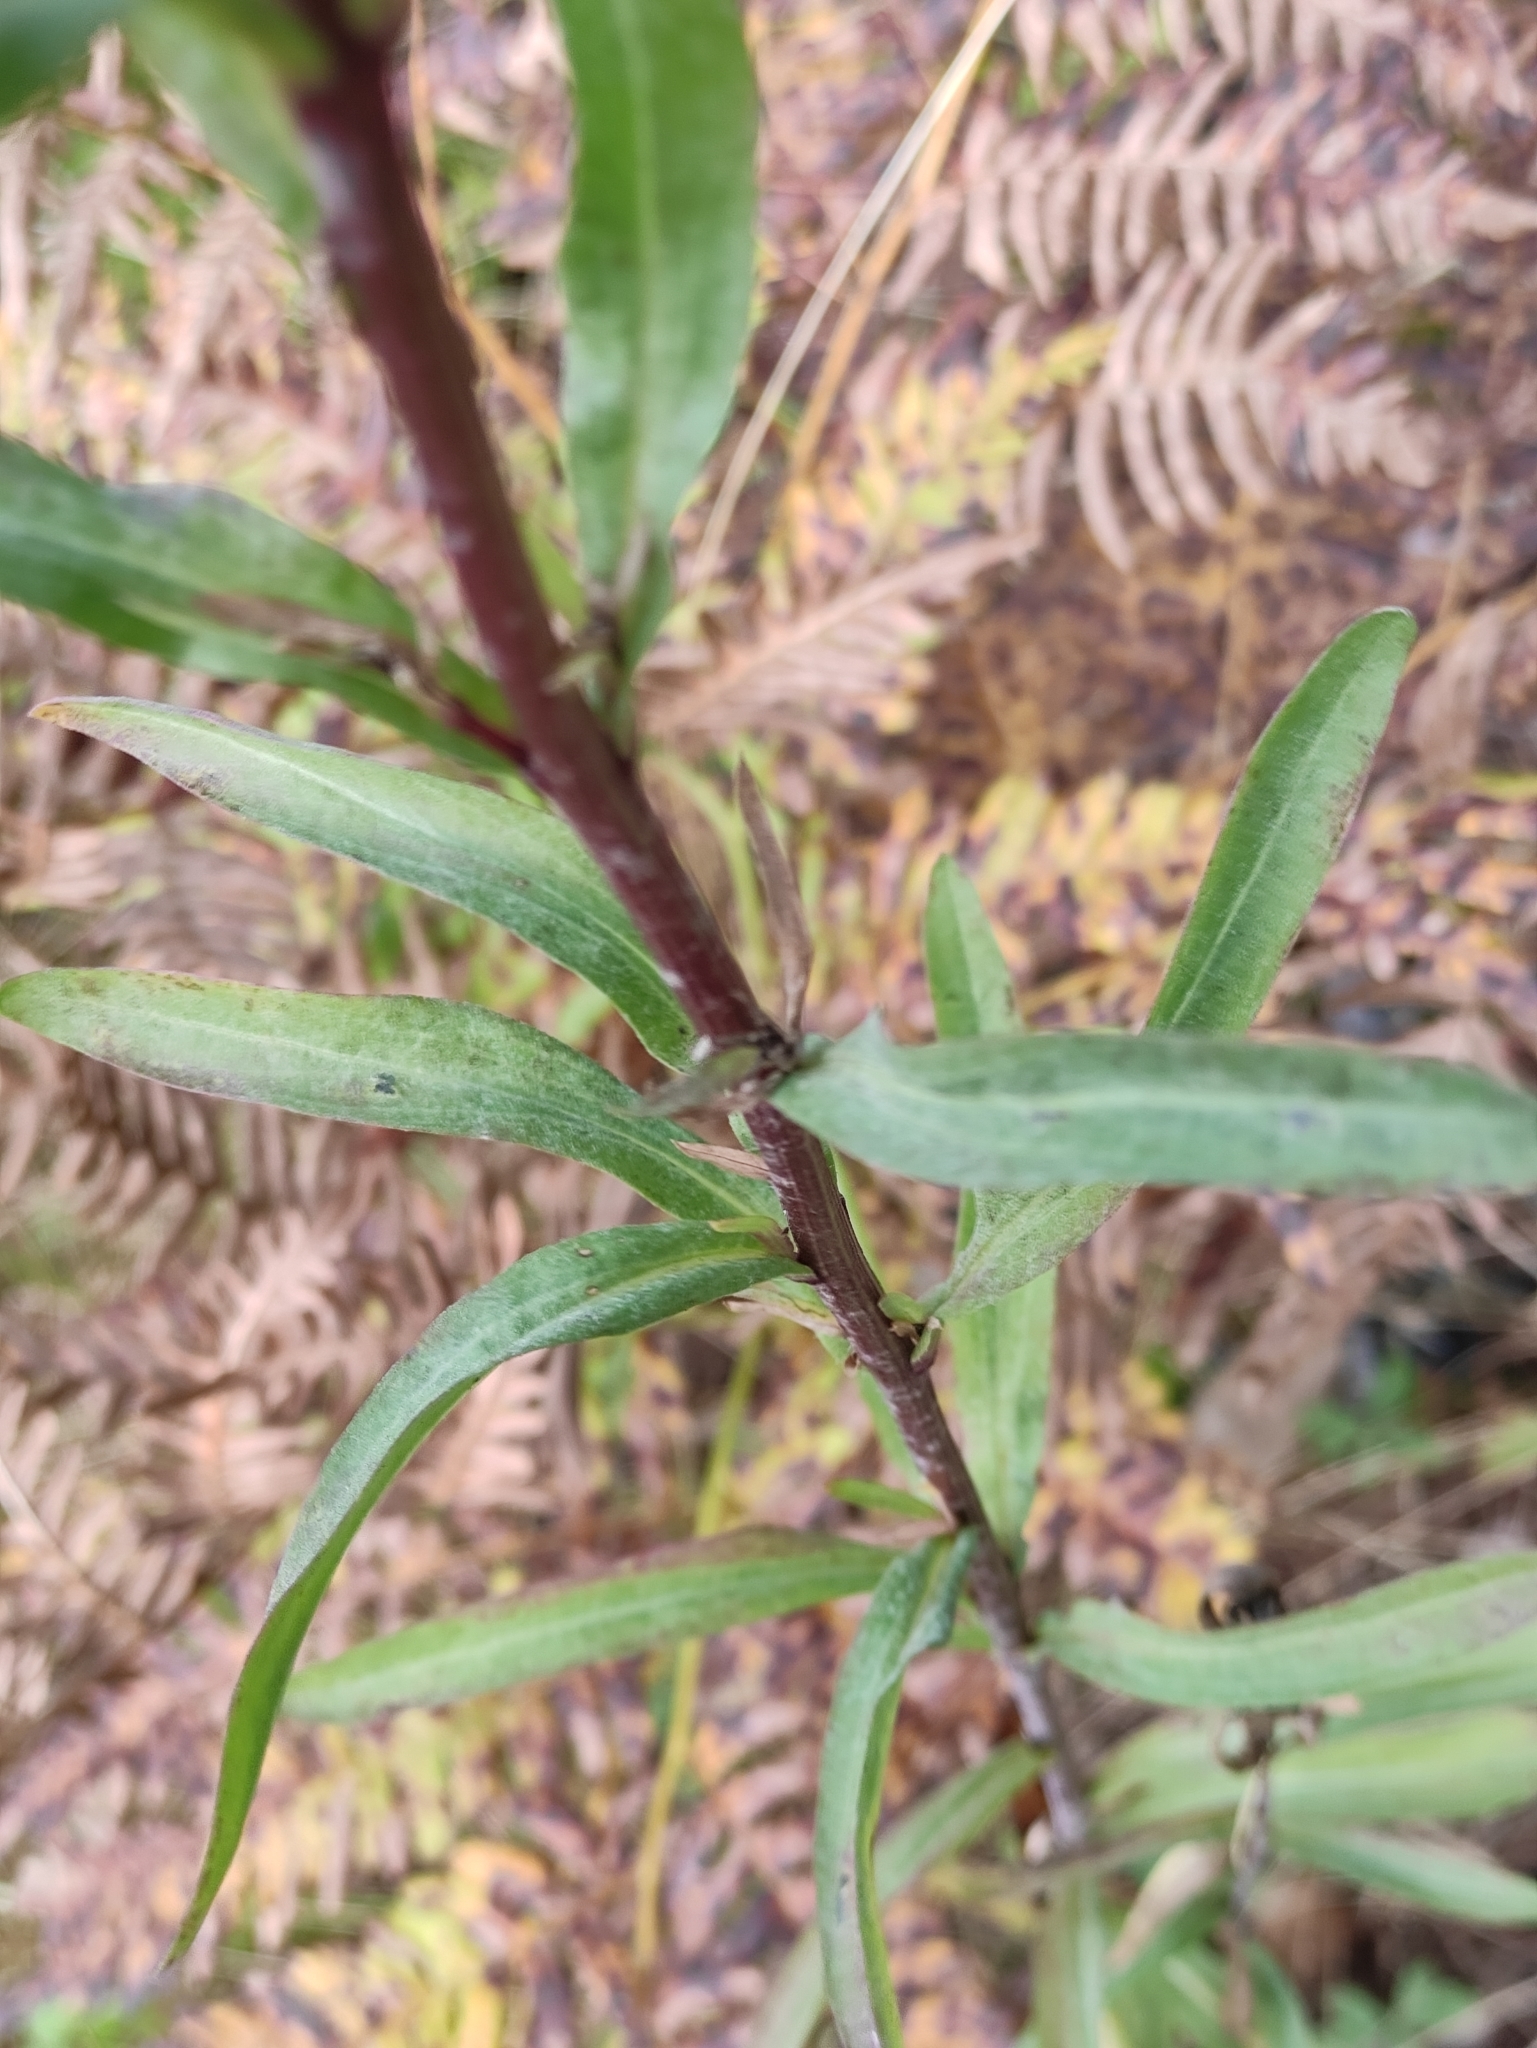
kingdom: Plantae
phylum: Tracheophyta
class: Magnoliopsida
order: Asterales
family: Asteraceae
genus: Erigeron
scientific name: Erigeron acris
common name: Blue fleabane
